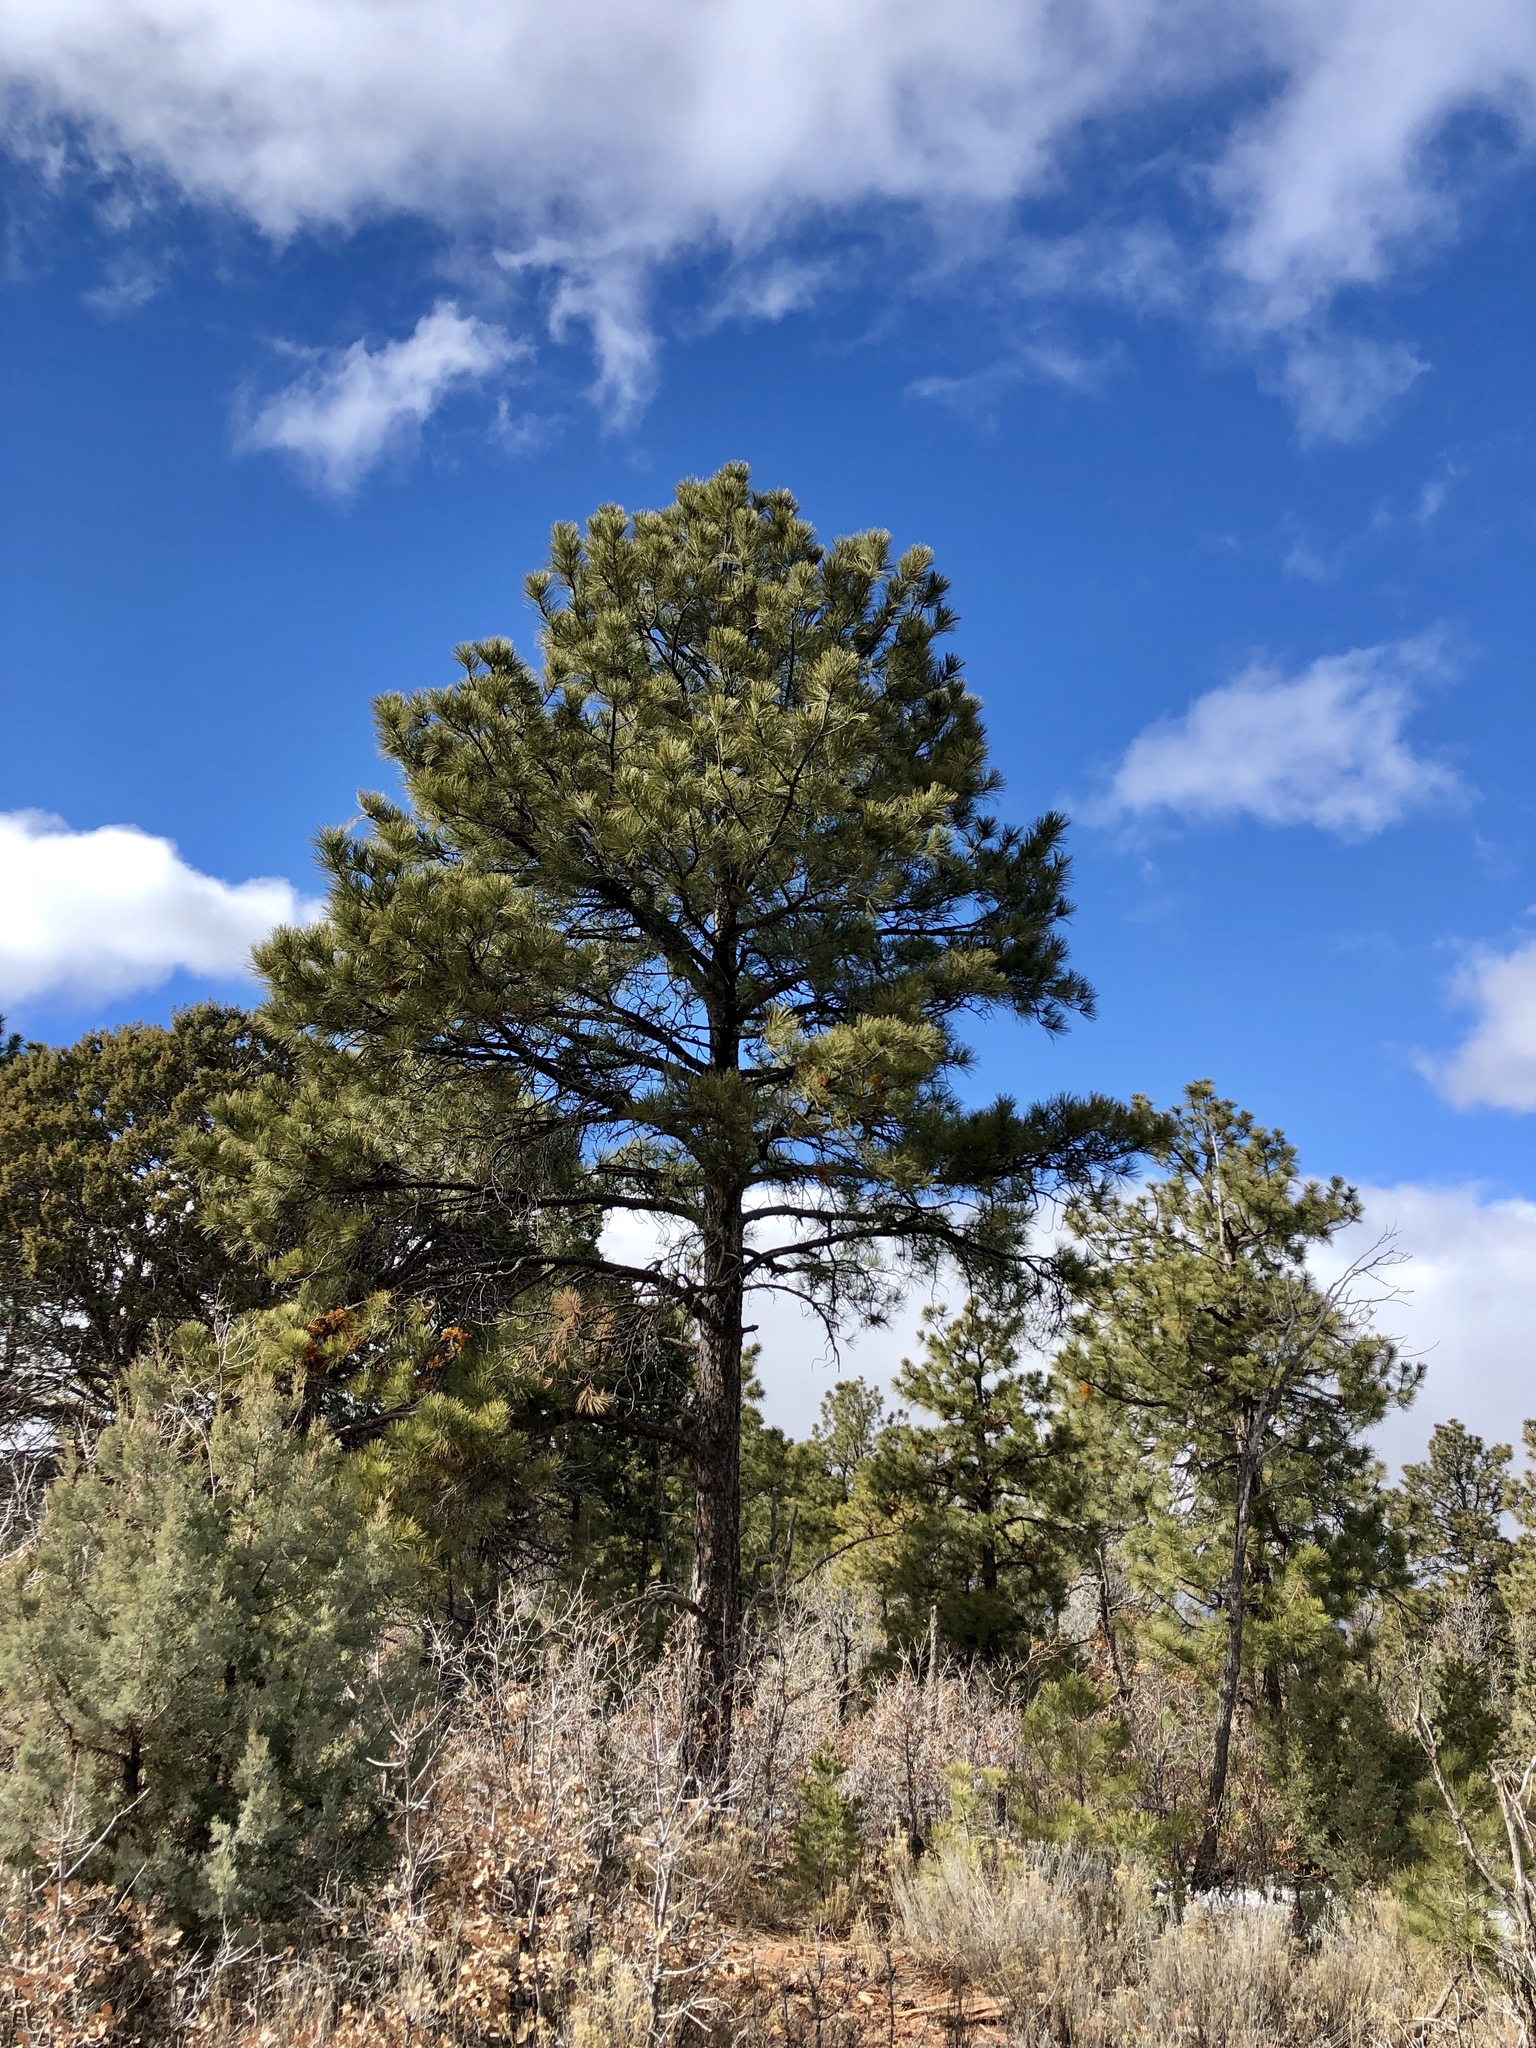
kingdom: Plantae
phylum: Tracheophyta
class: Pinopsida
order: Pinales
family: Pinaceae
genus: Pinus
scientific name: Pinus ponderosa
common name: Western yellow-pine
